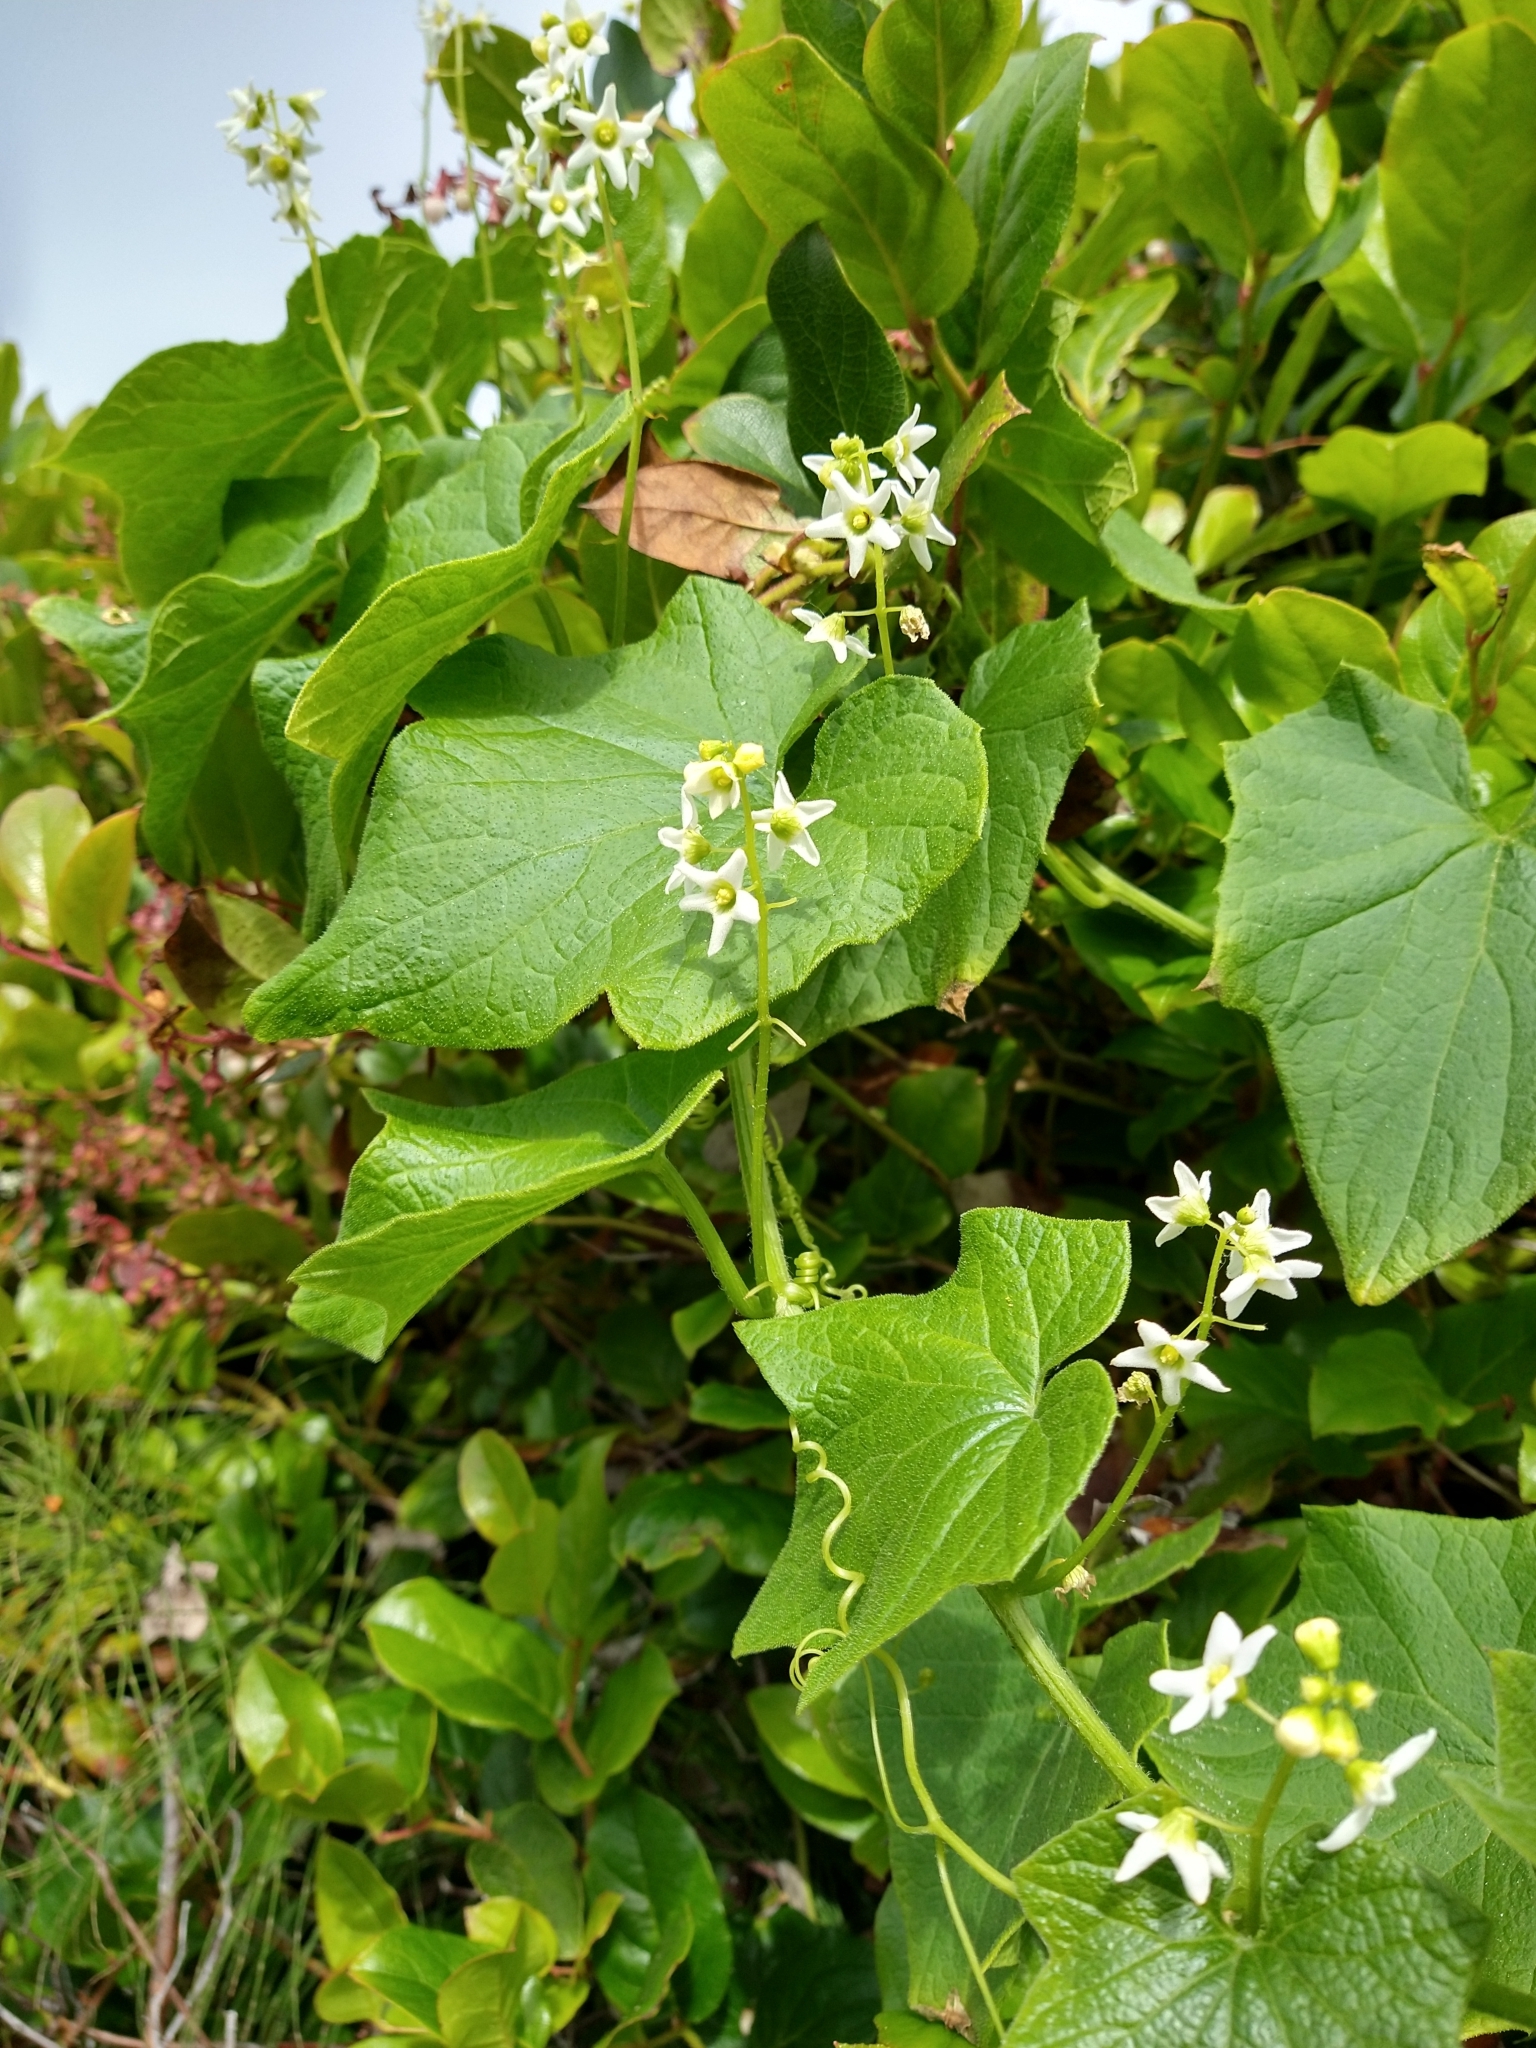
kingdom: Plantae
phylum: Tracheophyta
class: Magnoliopsida
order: Cucurbitales
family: Cucurbitaceae
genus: Marah
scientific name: Marah oregana
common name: Coastal manroot
